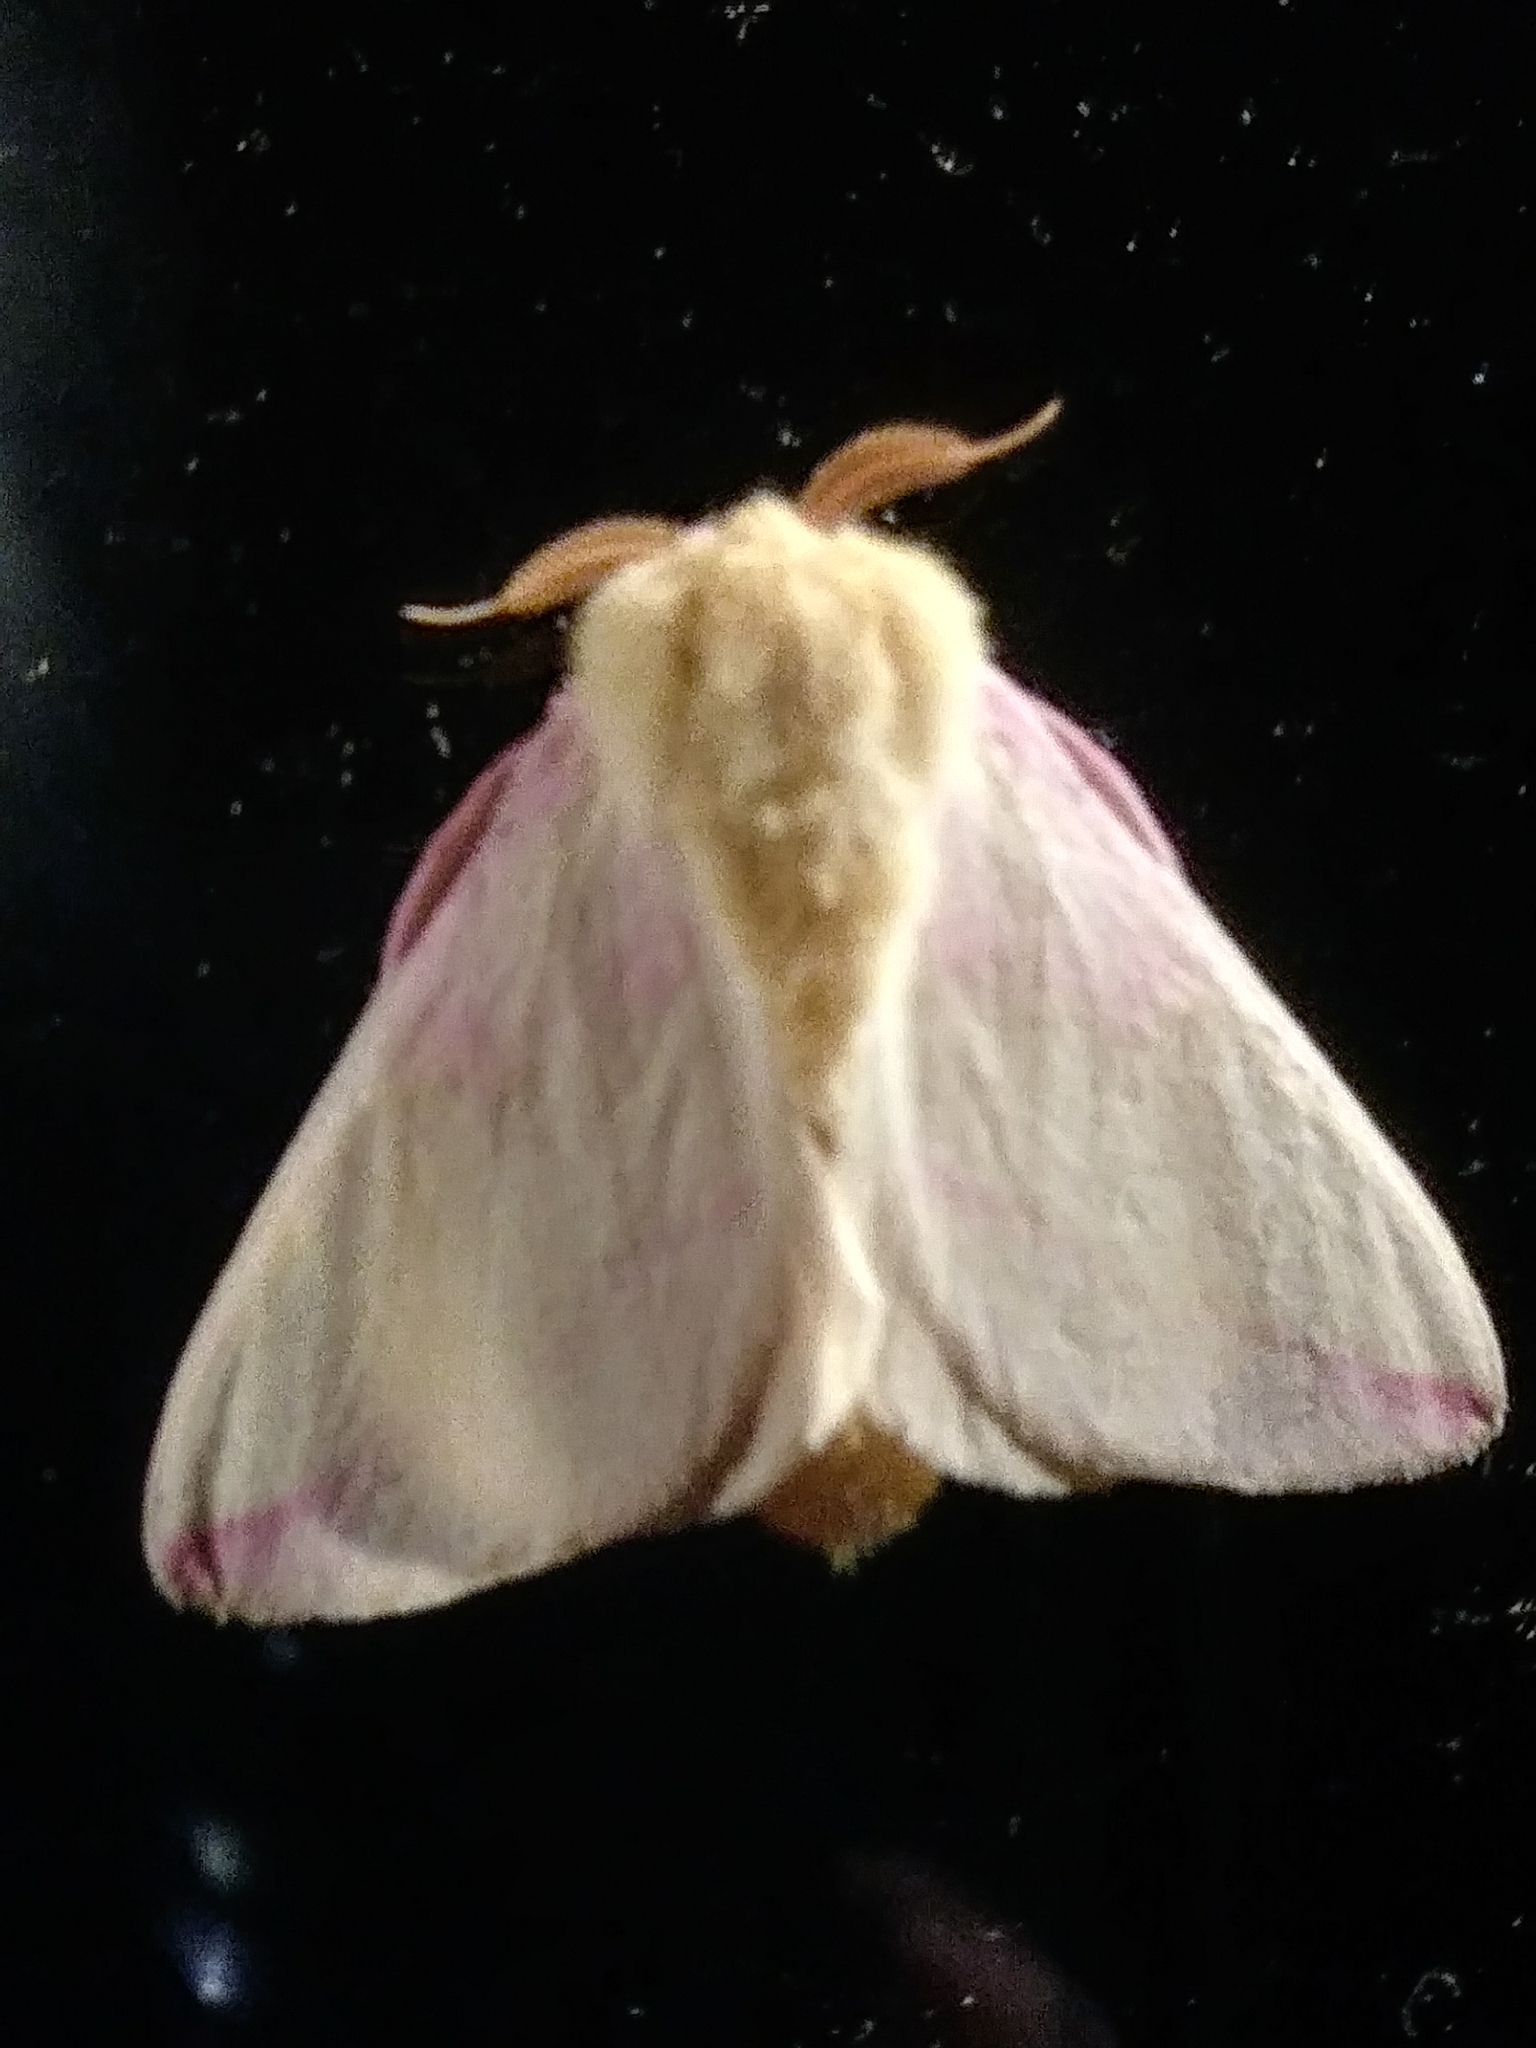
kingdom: Animalia
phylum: Arthropoda
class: Insecta
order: Lepidoptera
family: Saturniidae
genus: Dryocampa
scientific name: Dryocampa rubicunda
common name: Rosy maple moth
